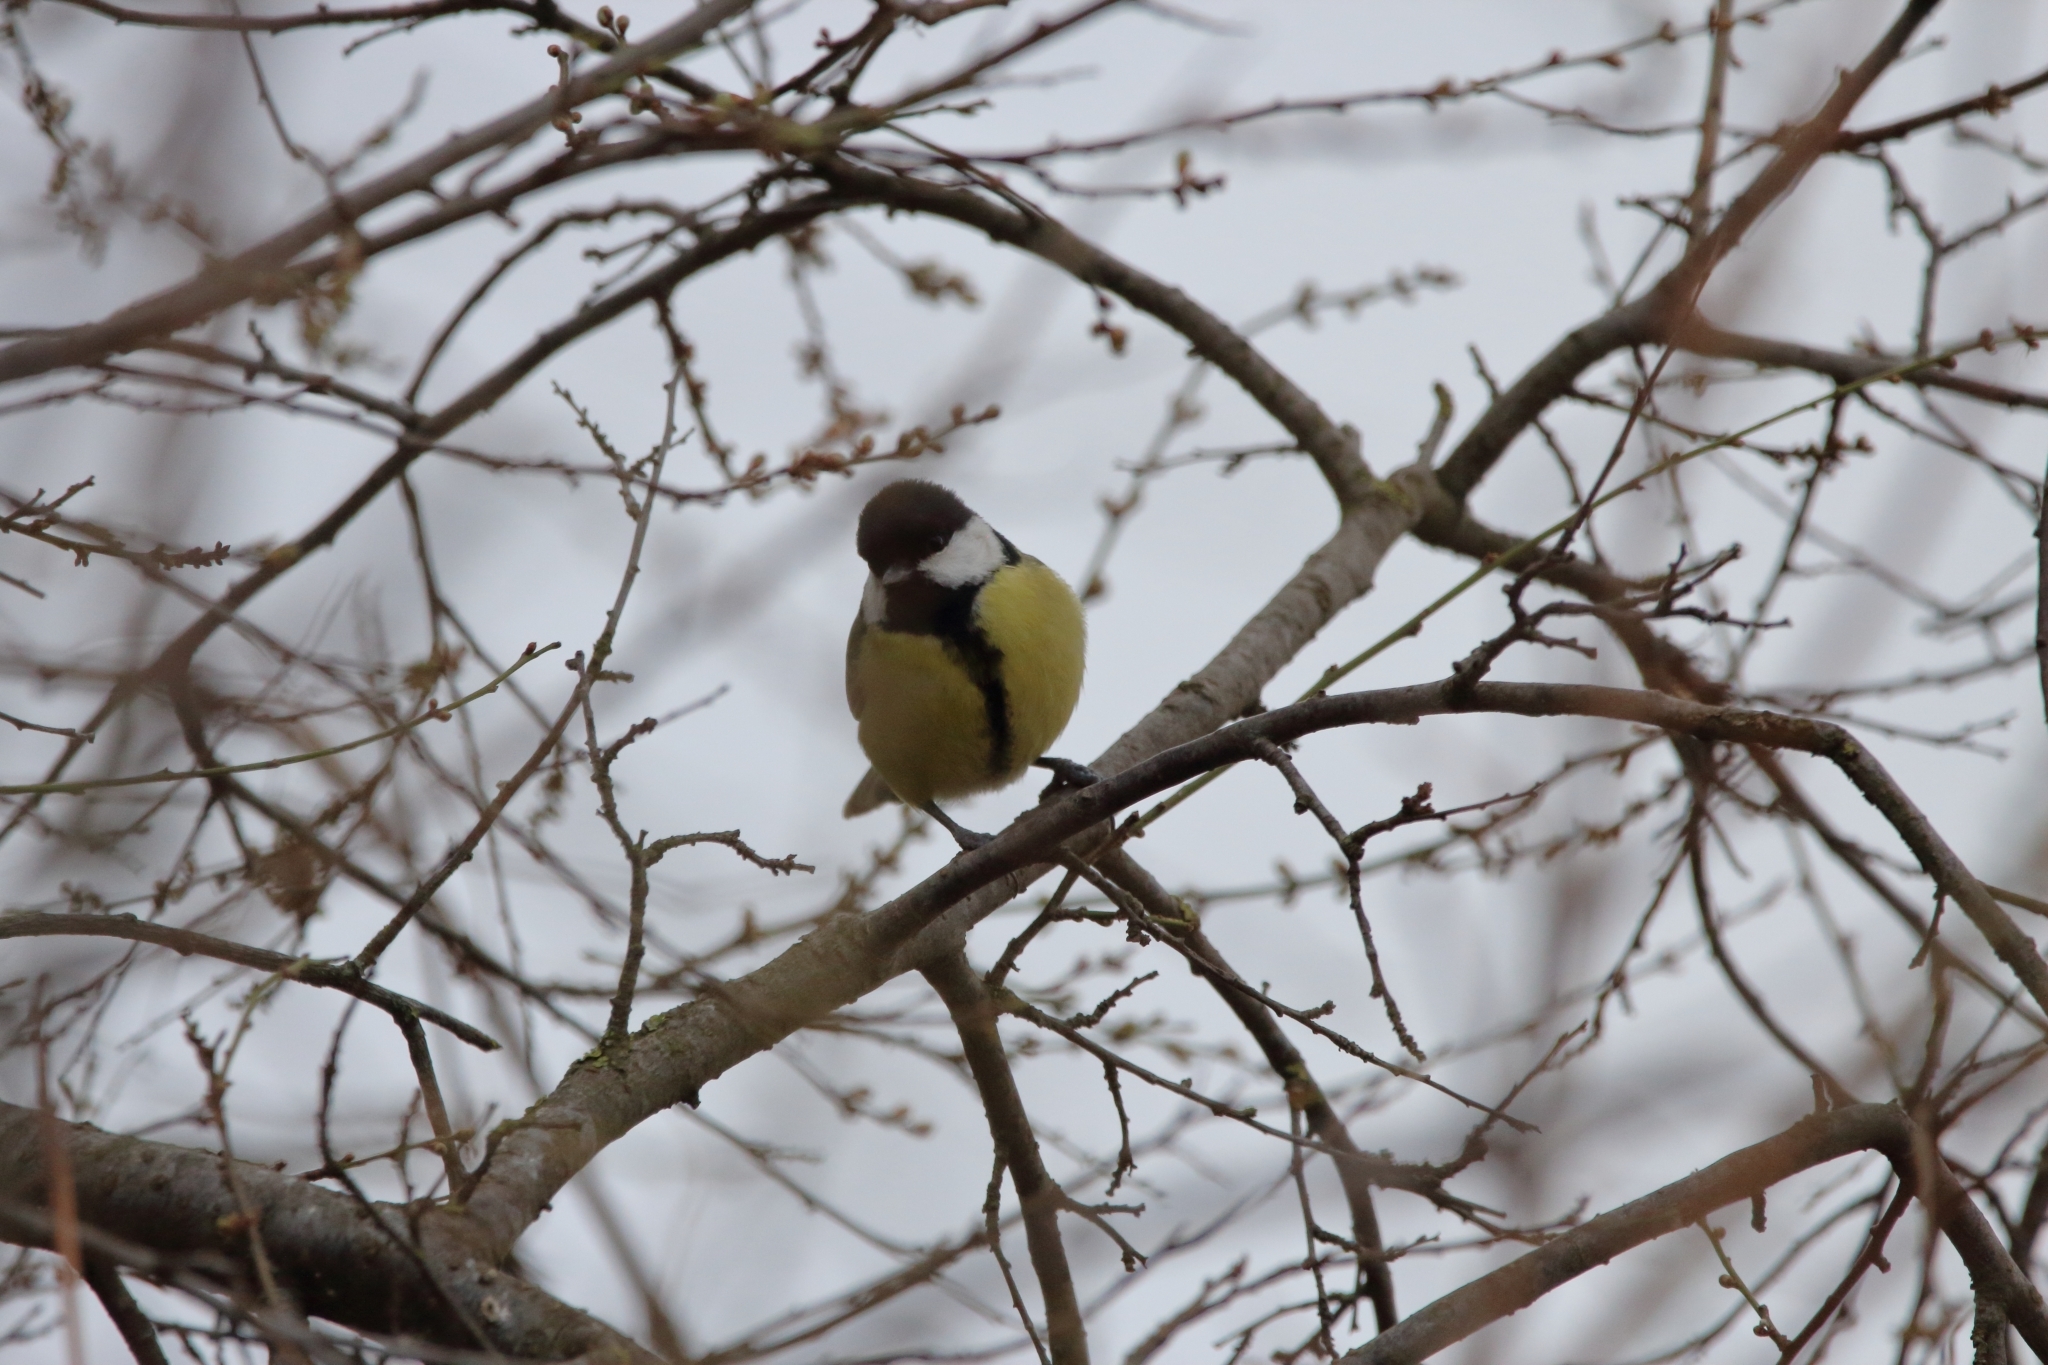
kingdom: Animalia
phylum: Chordata
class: Aves
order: Passeriformes
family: Paridae
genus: Parus
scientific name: Parus major
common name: Great tit
